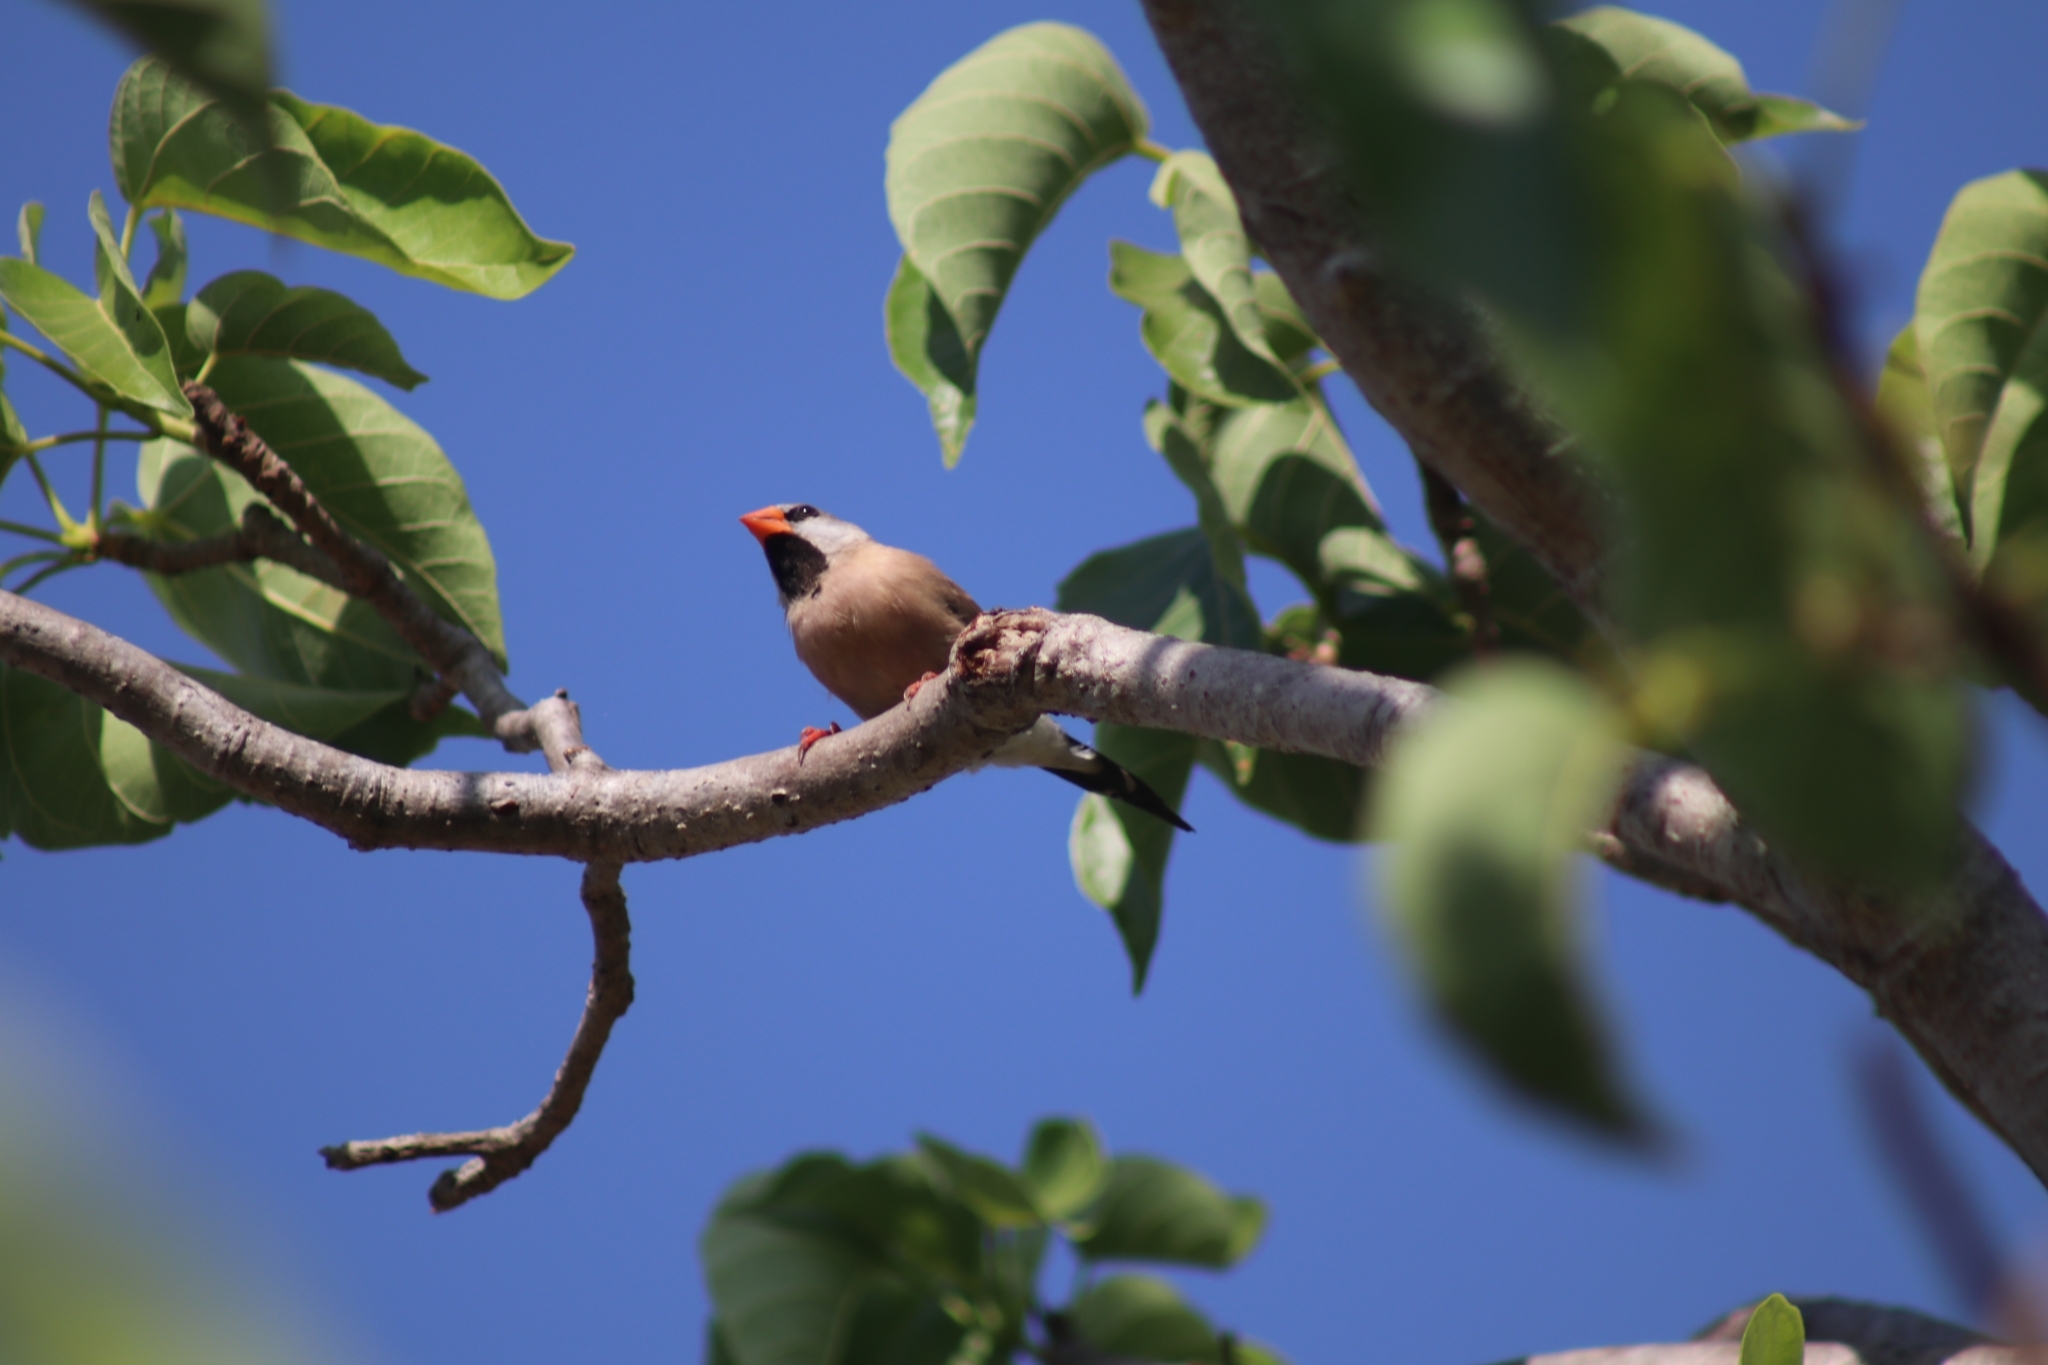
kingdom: Animalia
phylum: Chordata
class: Aves
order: Passeriformes
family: Estrildidae
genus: Poephila
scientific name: Poephila acuticauda
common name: Long-tailed finch
